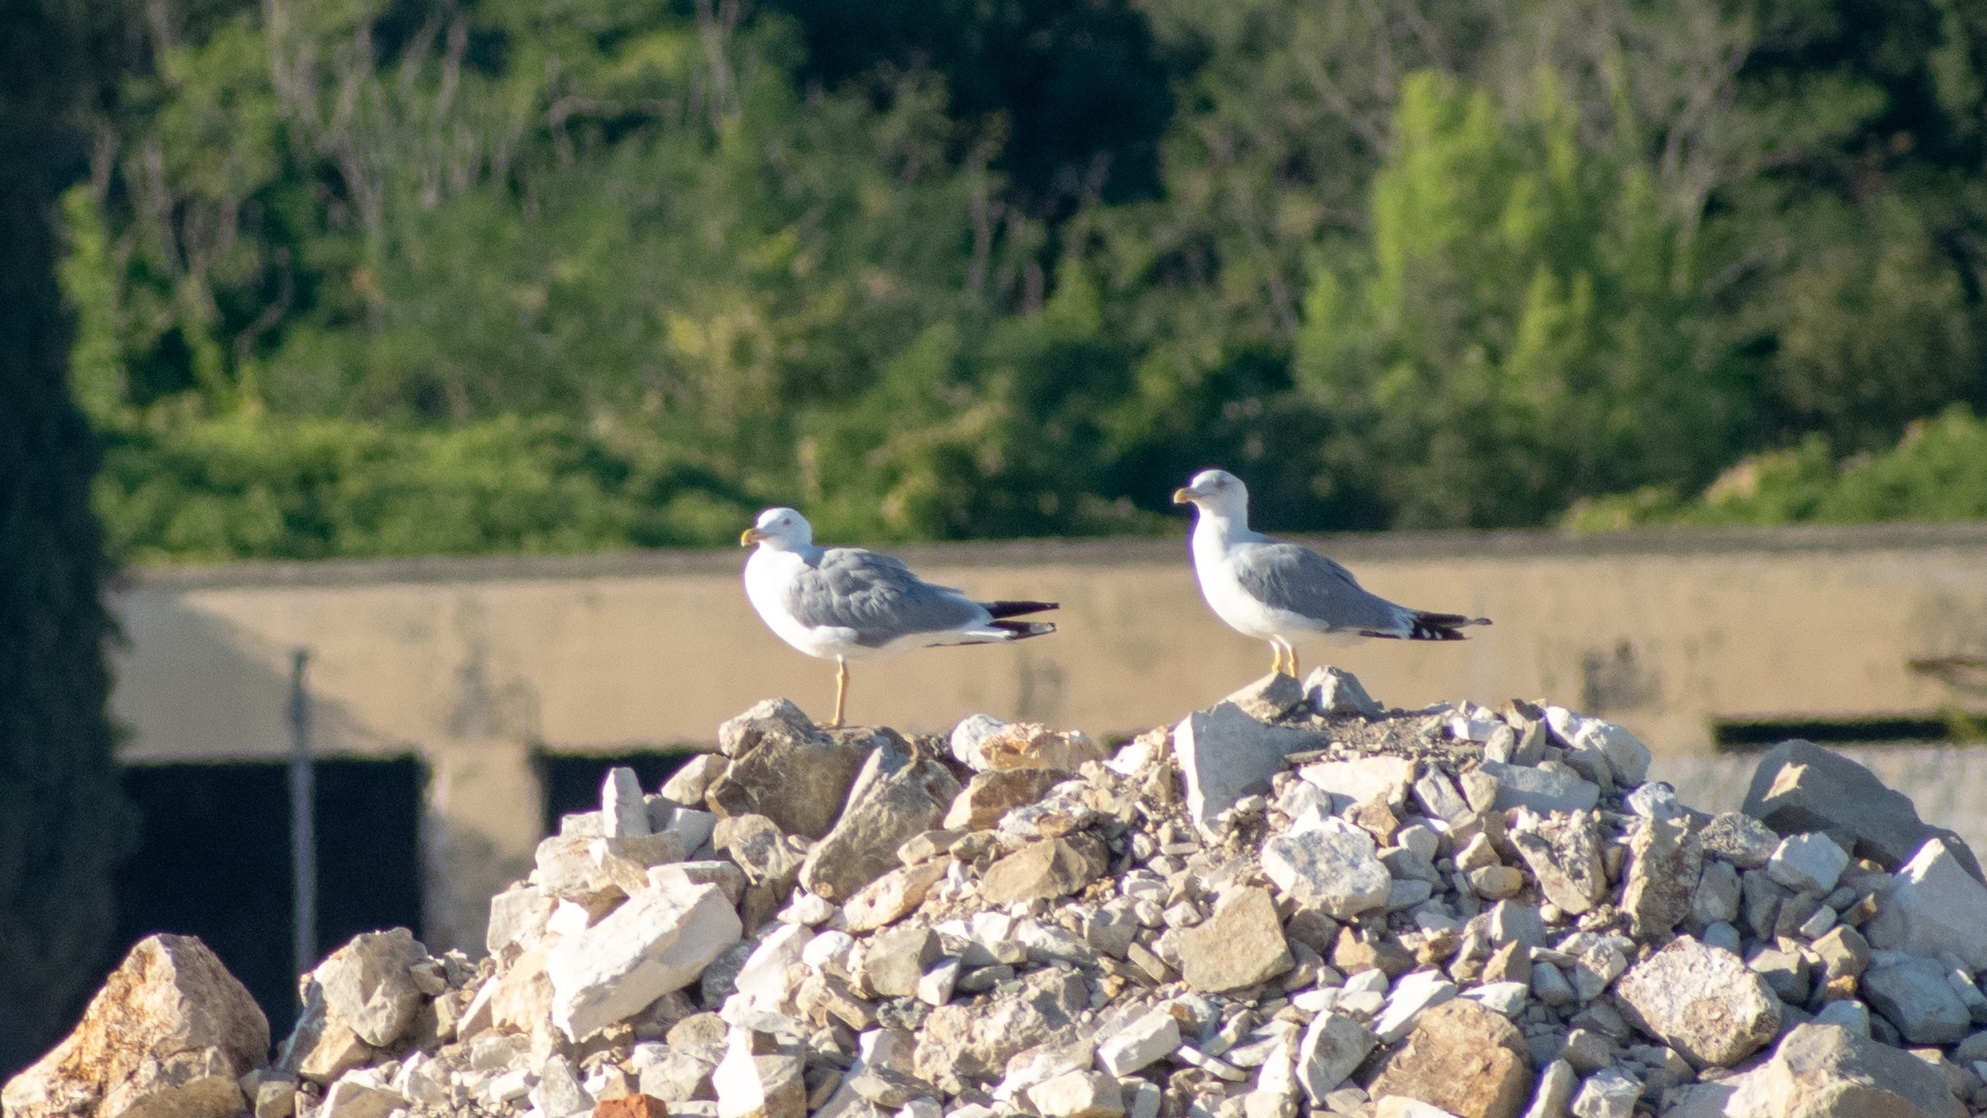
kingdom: Animalia
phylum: Chordata
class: Aves
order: Charadriiformes
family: Laridae
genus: Larus
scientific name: Larus michahellis
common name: Yellow-legged gull
